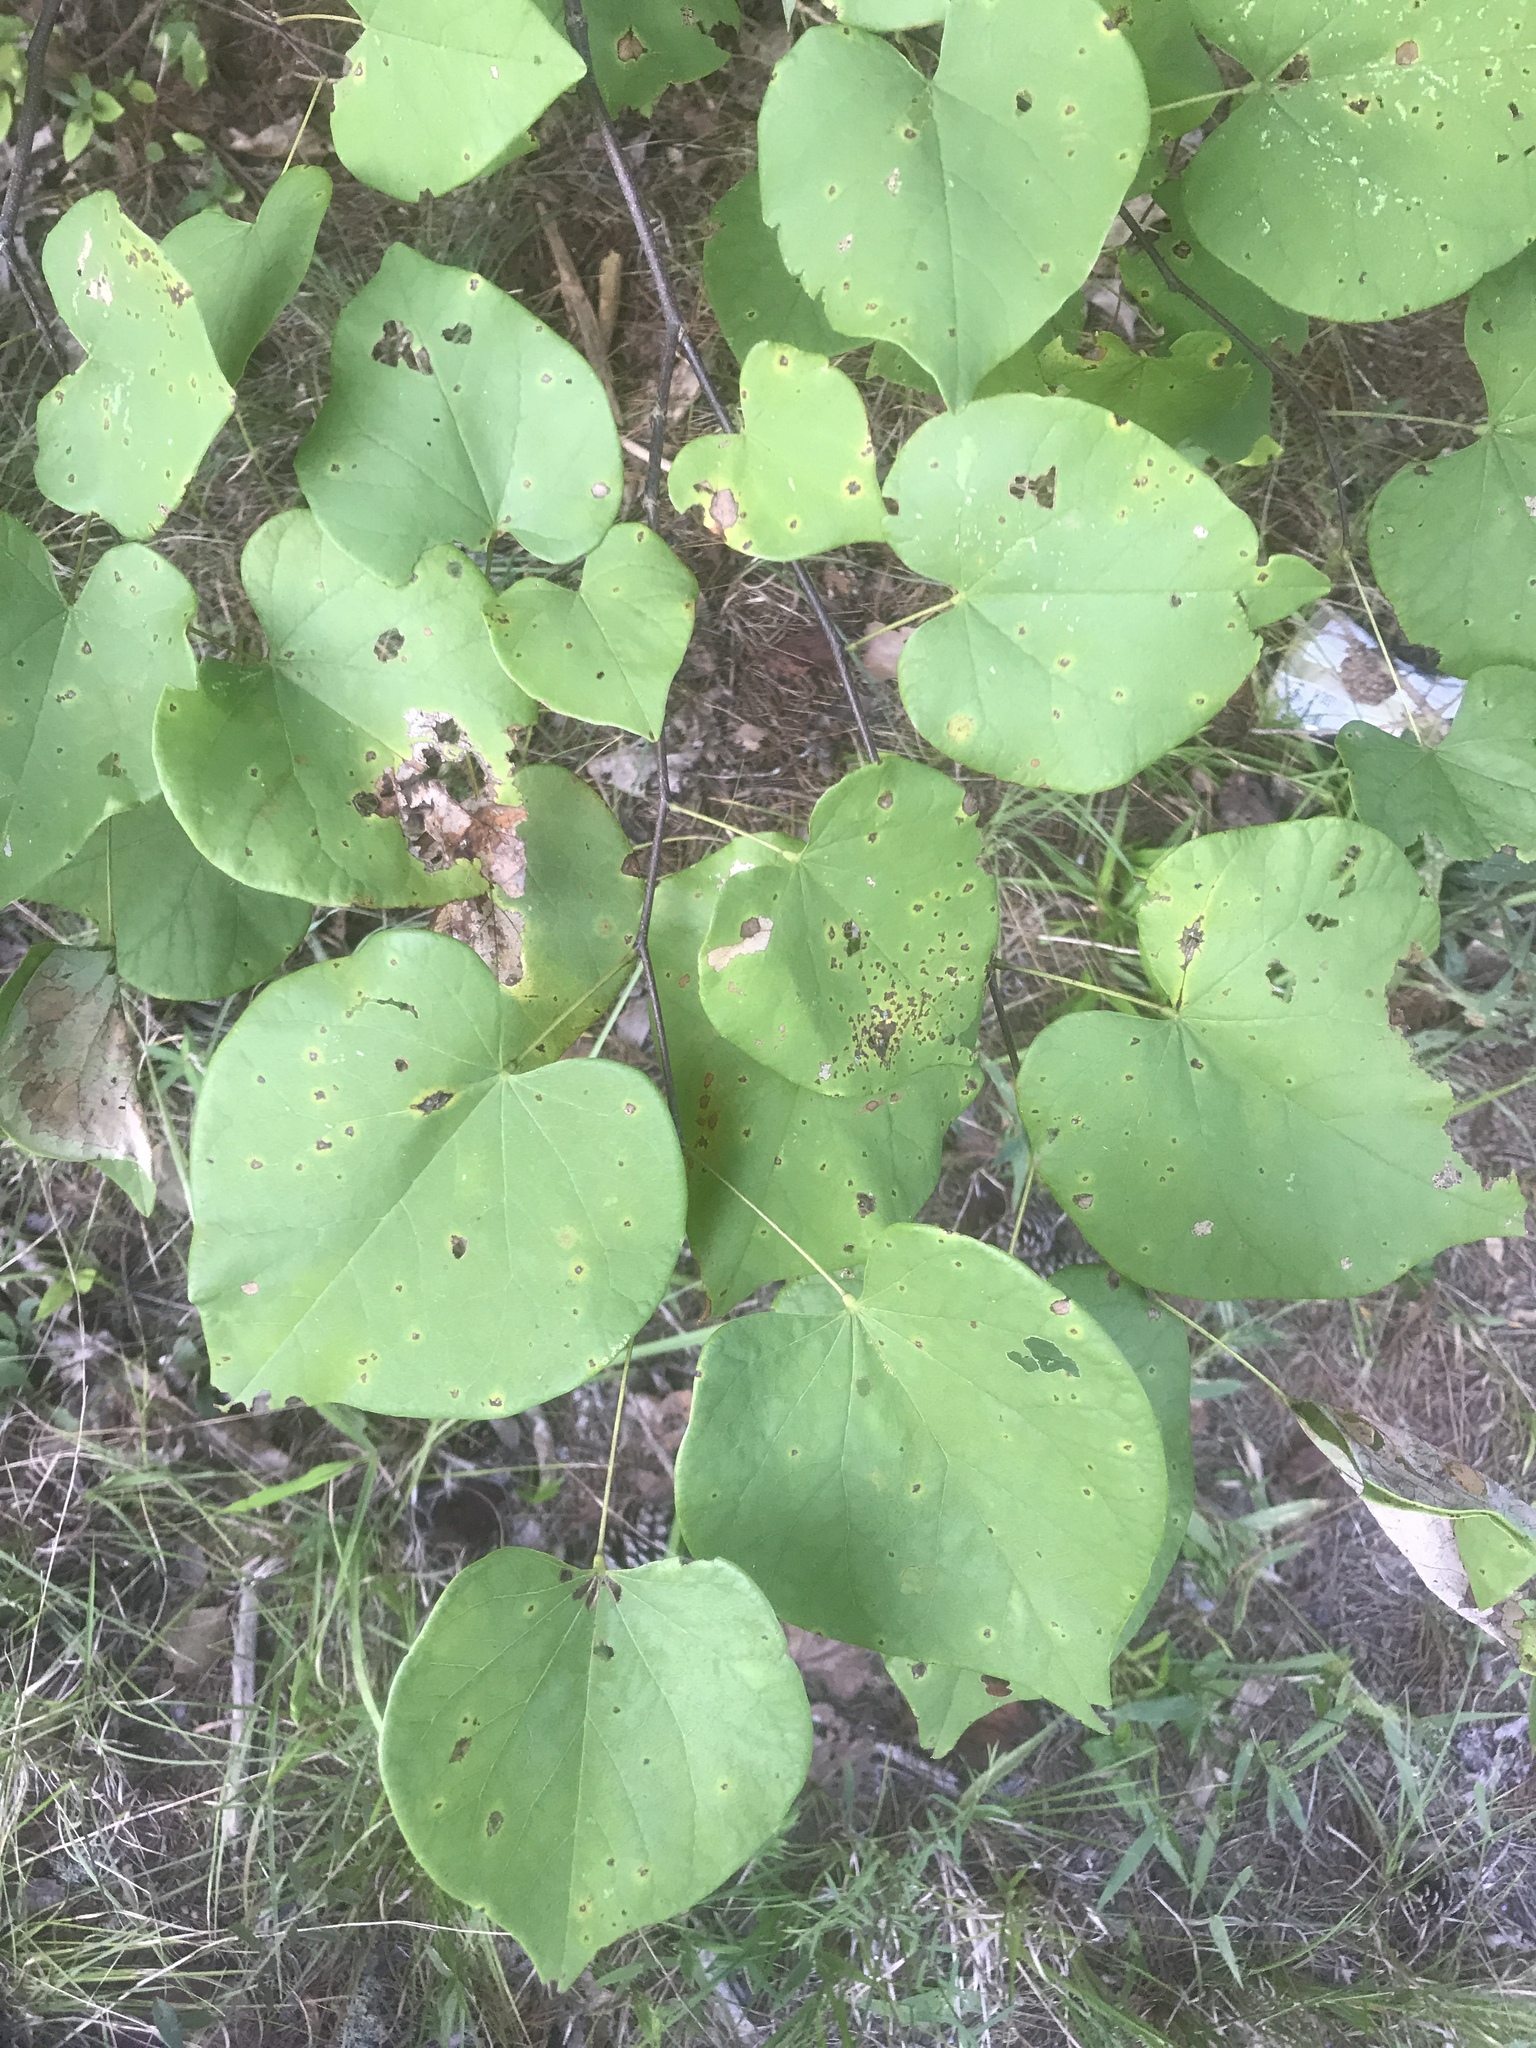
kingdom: Plantae
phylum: Tracheophyta
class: Magnoliopsida
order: Fabales
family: Fabaceae
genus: Cercis
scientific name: Cercis canadensis
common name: Eastern redbud
